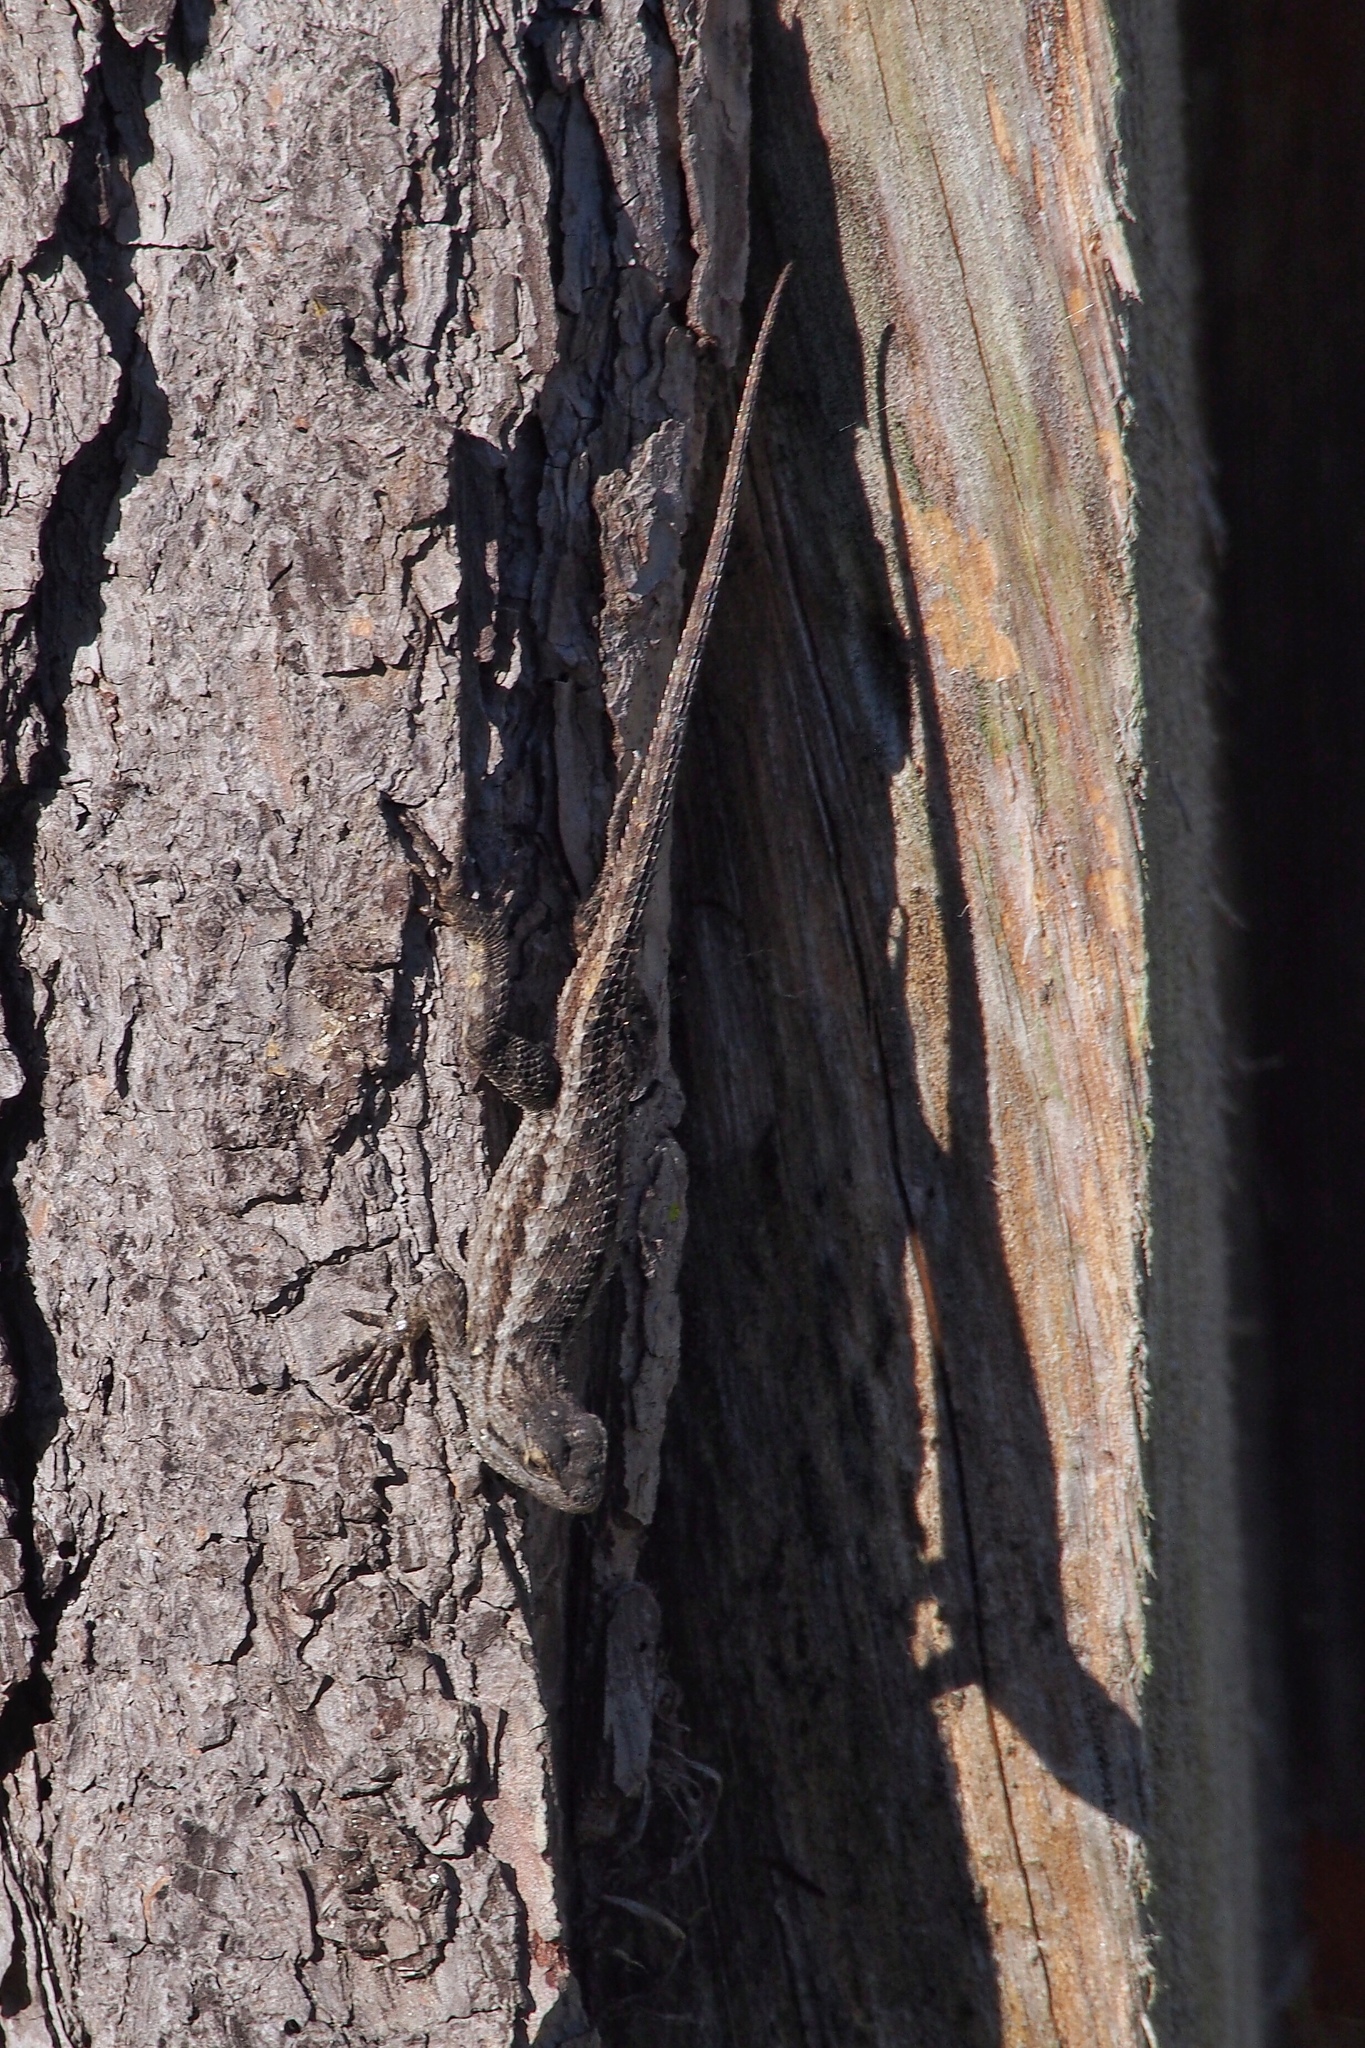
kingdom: Animalia
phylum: Chordata
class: Squamata
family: Phrynosomatidae
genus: Sceloporus
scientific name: Sceloporus occidentalis
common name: Western fence lizard
